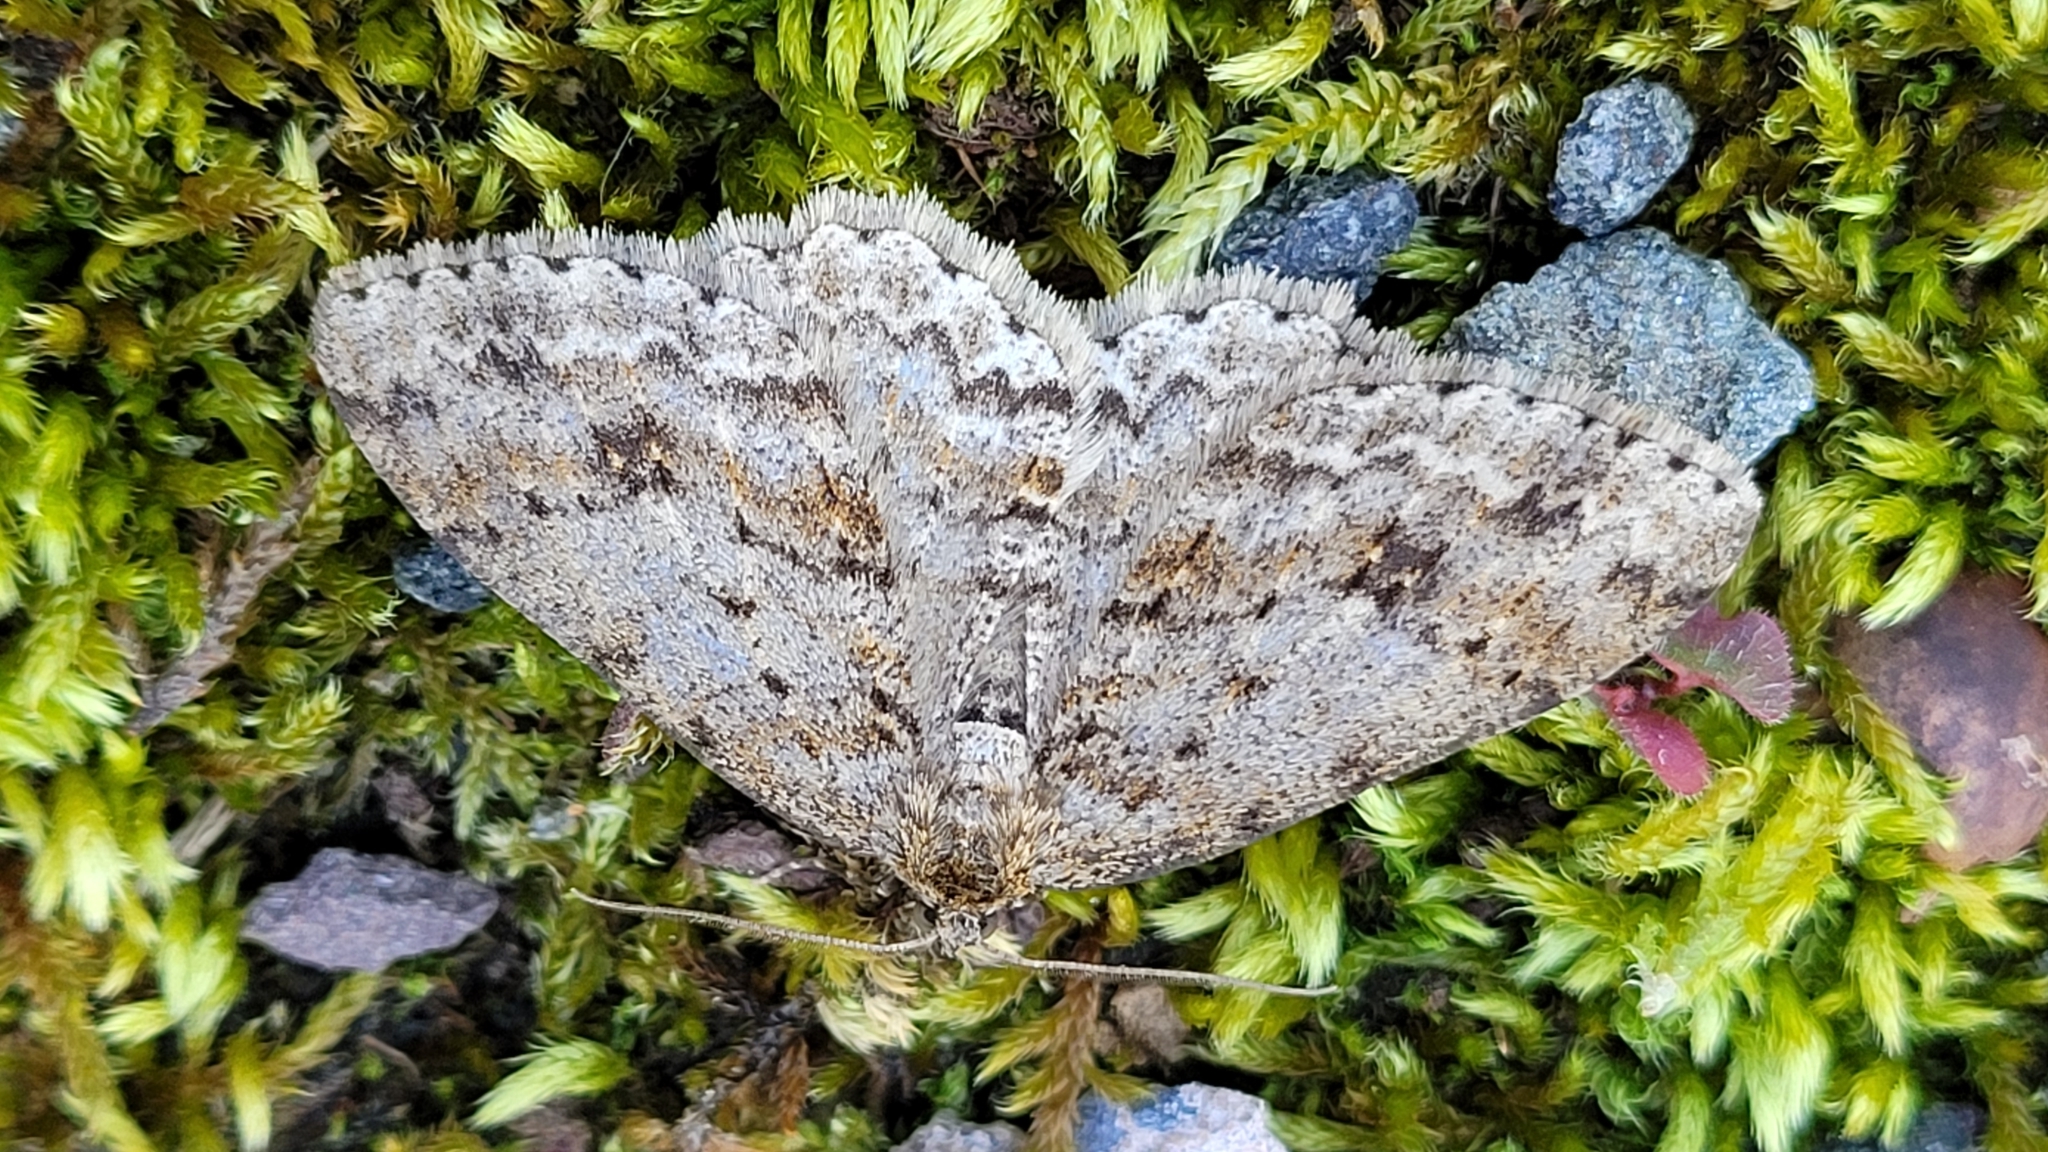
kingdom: Animalia
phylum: Arthropoda
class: Insecta
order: Lepidoptera
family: Geometridae
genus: Ectropis
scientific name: Ectropis crepuscularia
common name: Engrailed
